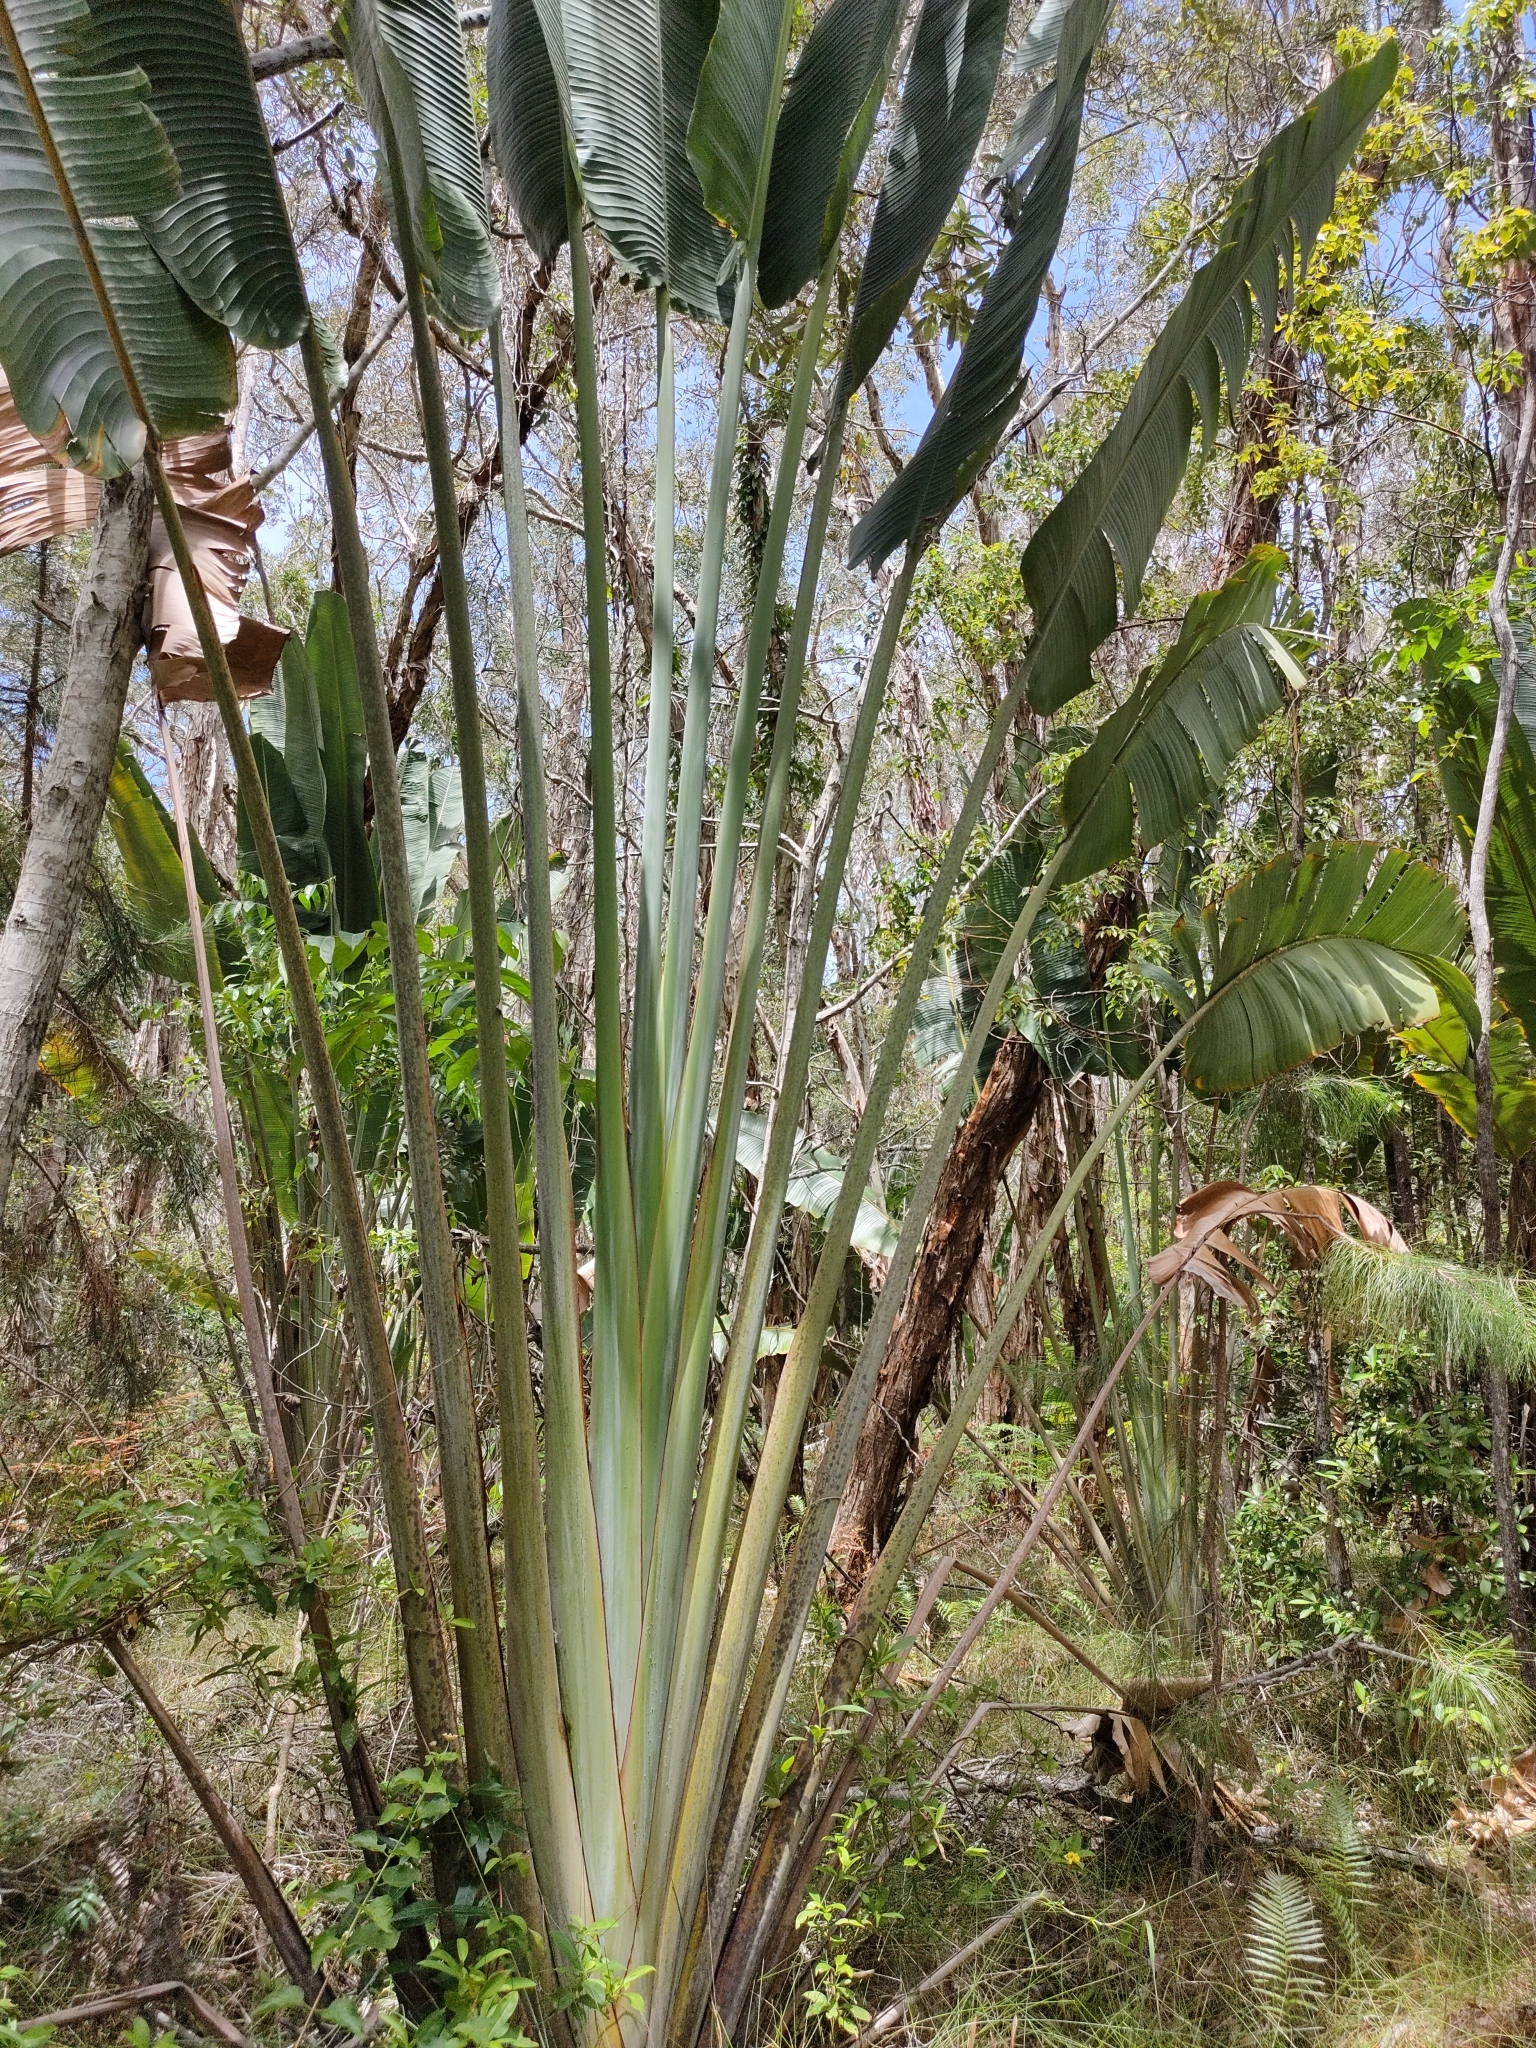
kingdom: Plantae
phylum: Tracheophyta
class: Liliopsida
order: Zingiberales
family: Strelitziaceae
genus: Ravenala
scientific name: Ravenala madagascariensis
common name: Traveler's-palm
